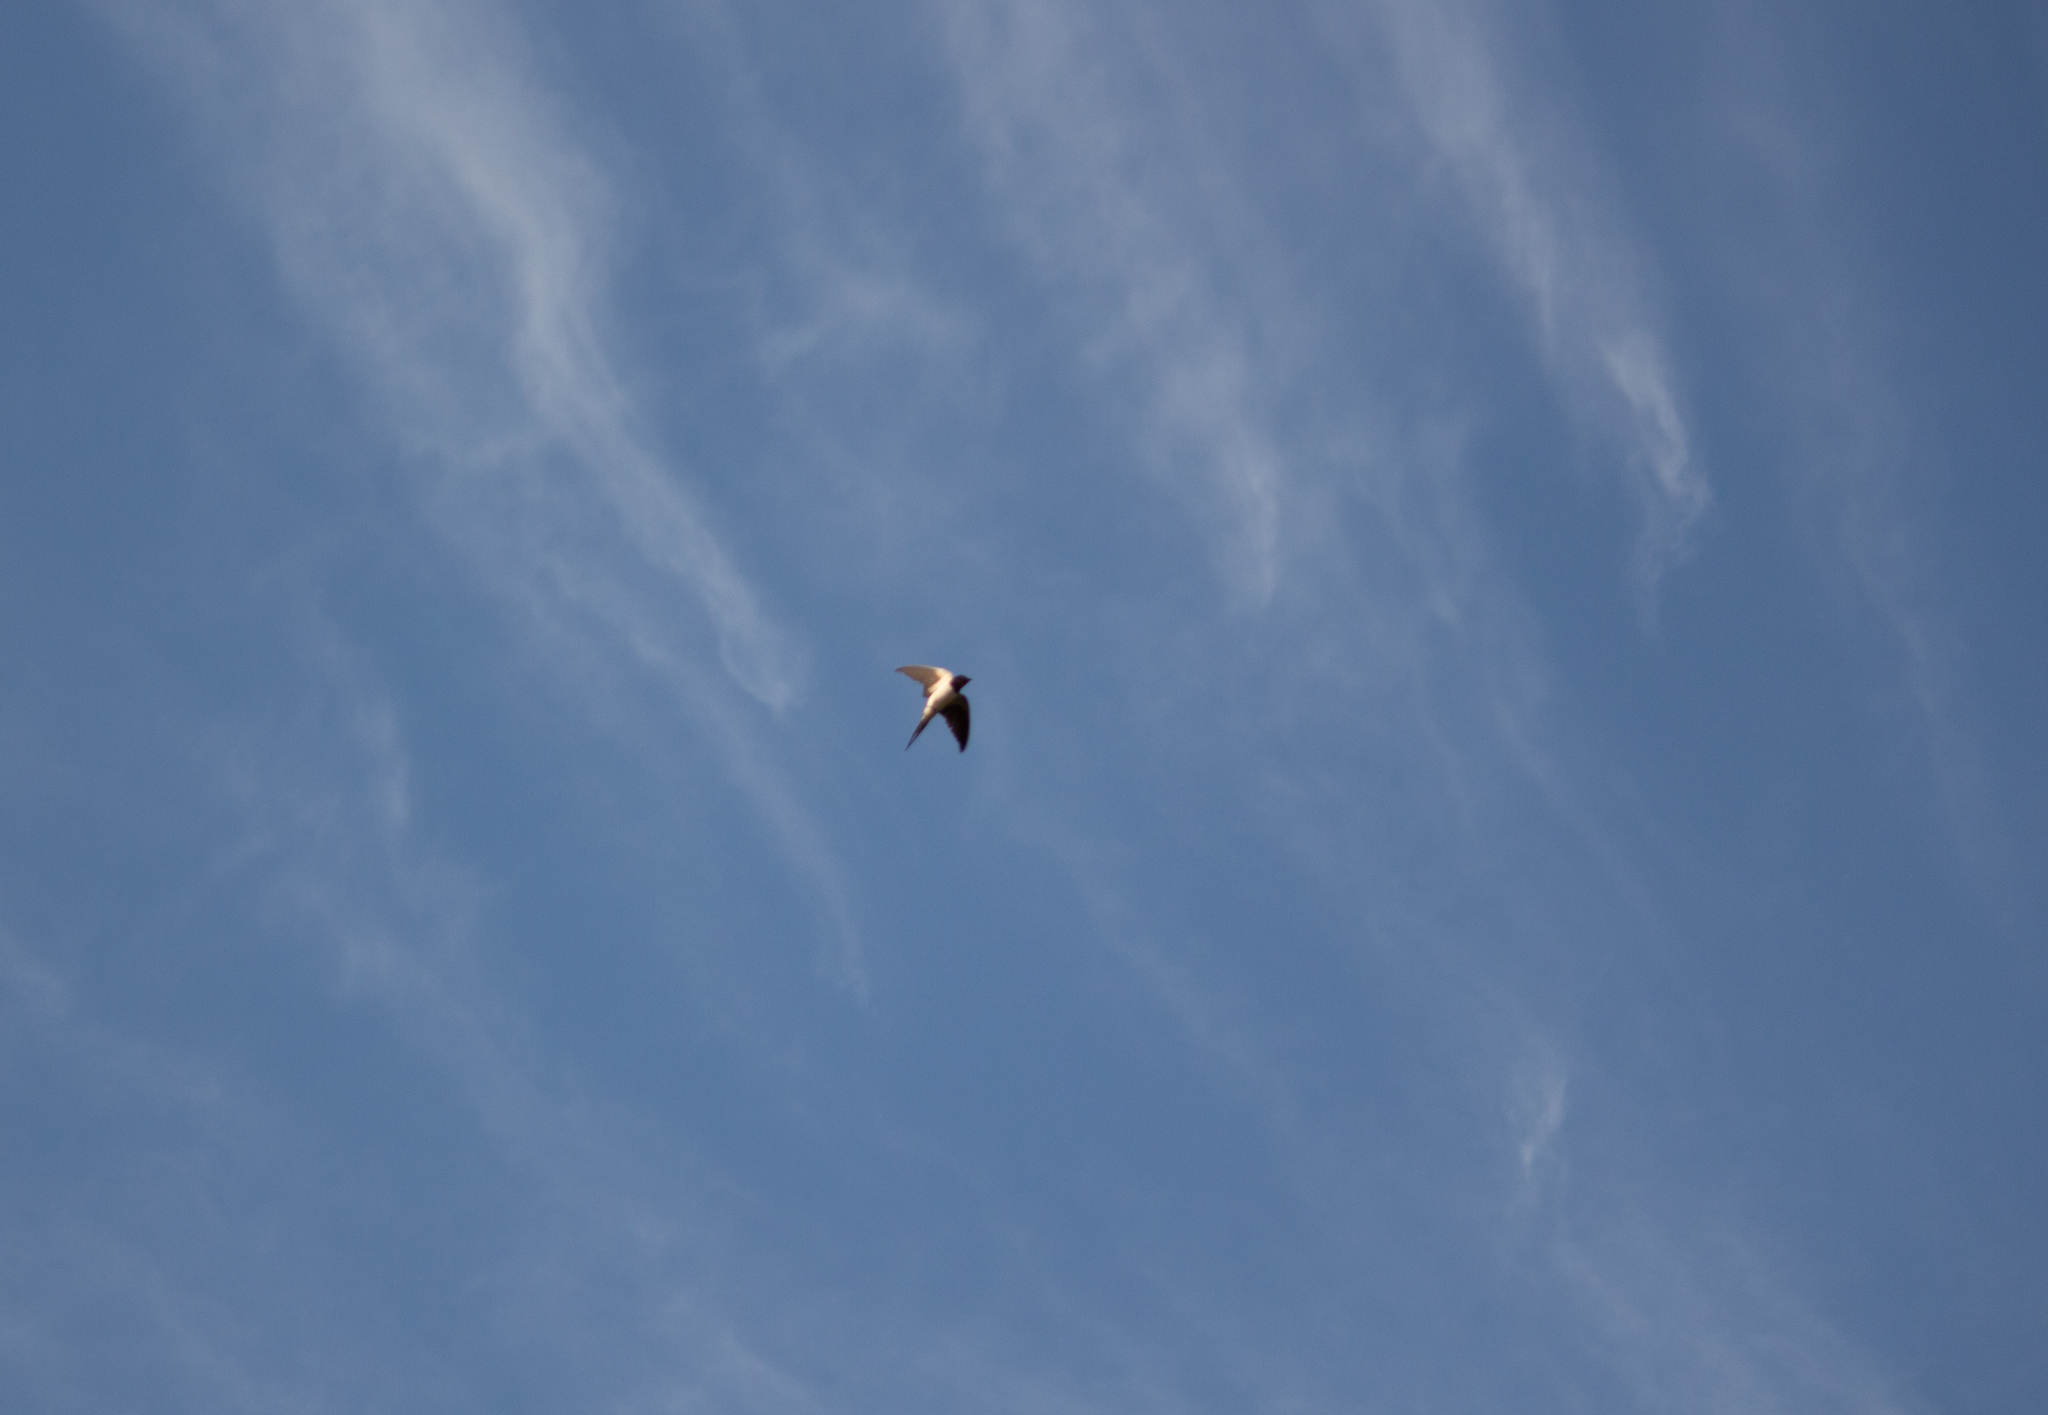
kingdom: Animalia
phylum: Chordata
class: Aves
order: Passeriformes
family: Hirundinidae
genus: Hirundo
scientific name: Hirundo rustica
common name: Barn swallow
